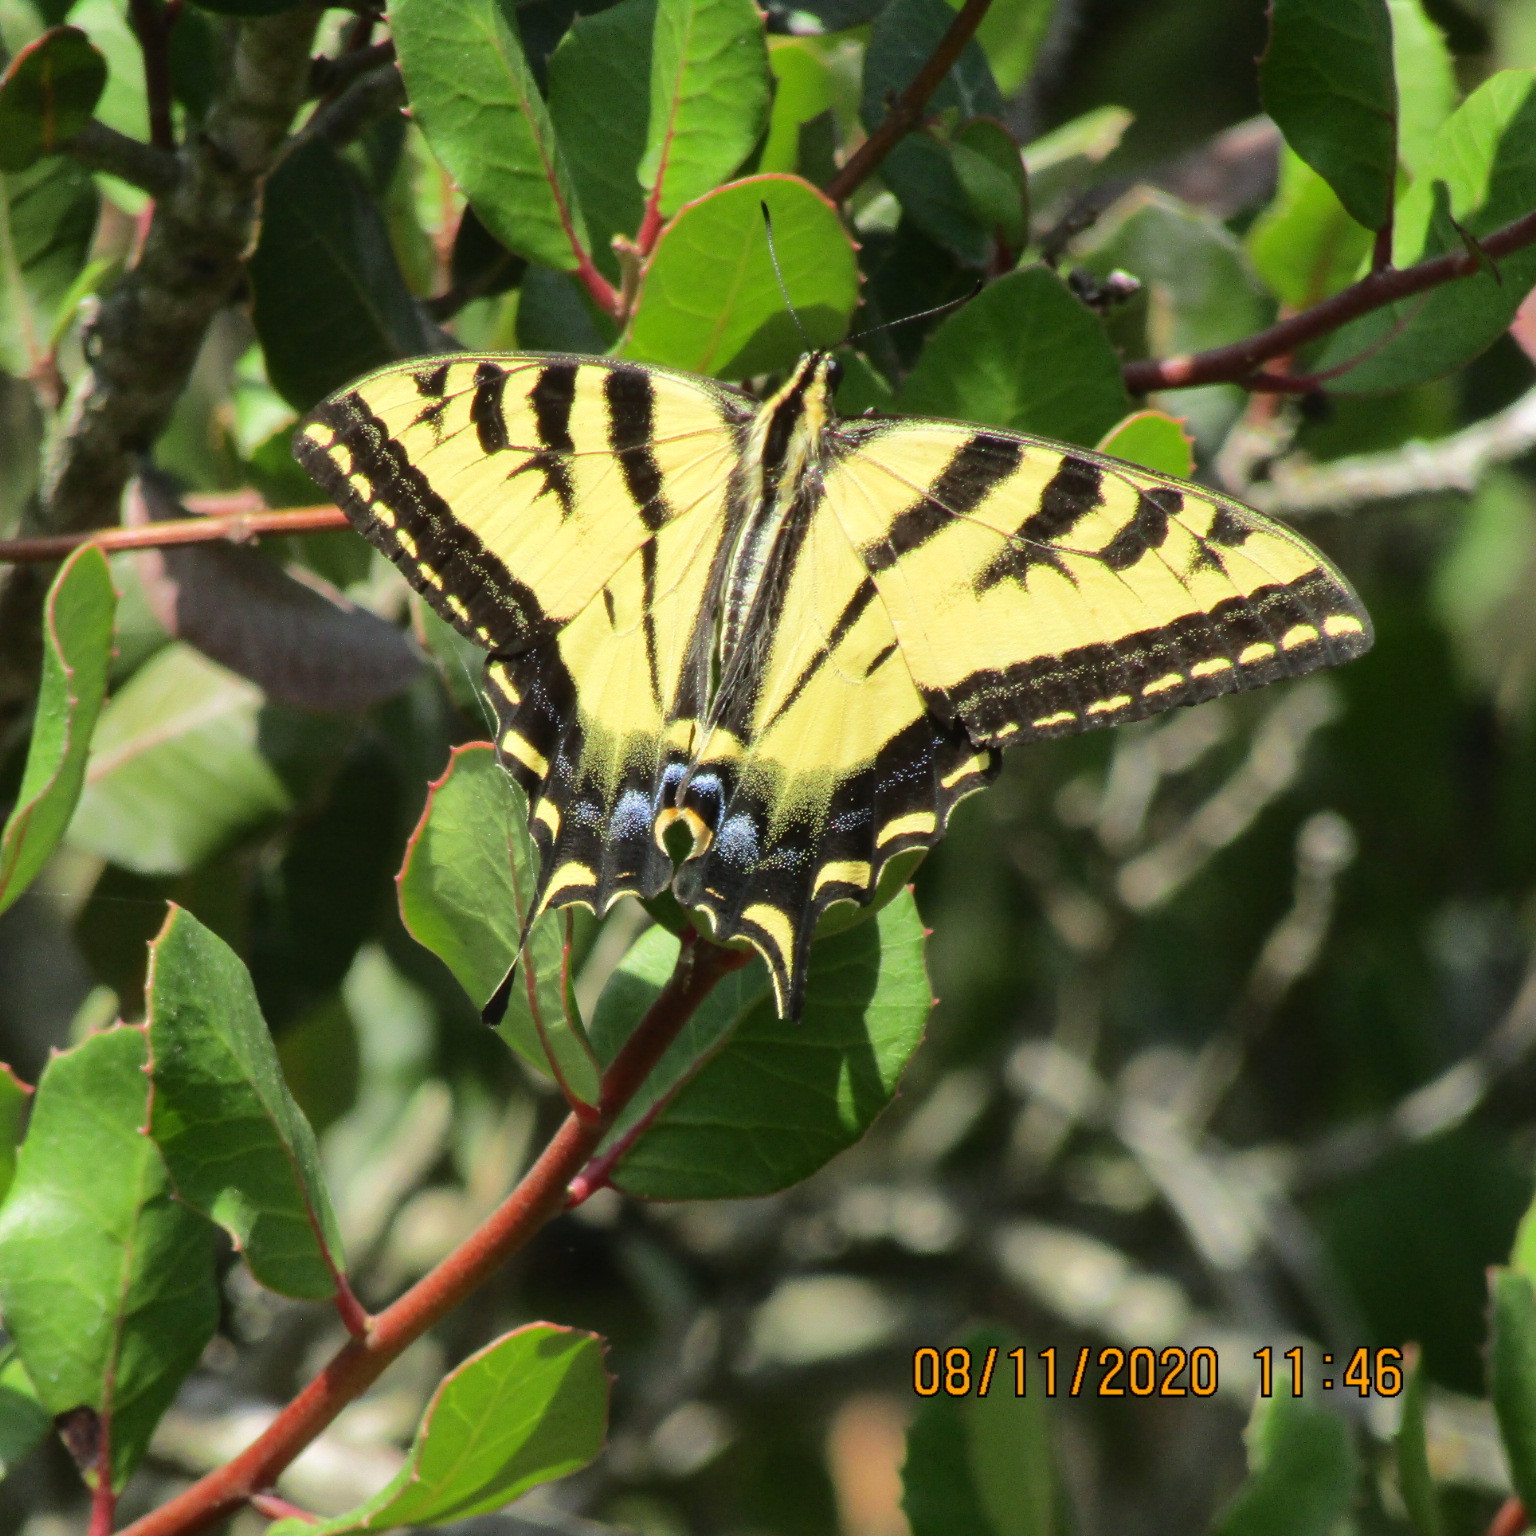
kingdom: Animalia
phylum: Arthropoda
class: Insecta
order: Lepidoptera
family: Papilionidae
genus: Papilio
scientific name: Papilio rutulus
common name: Western tiger swallowtail
